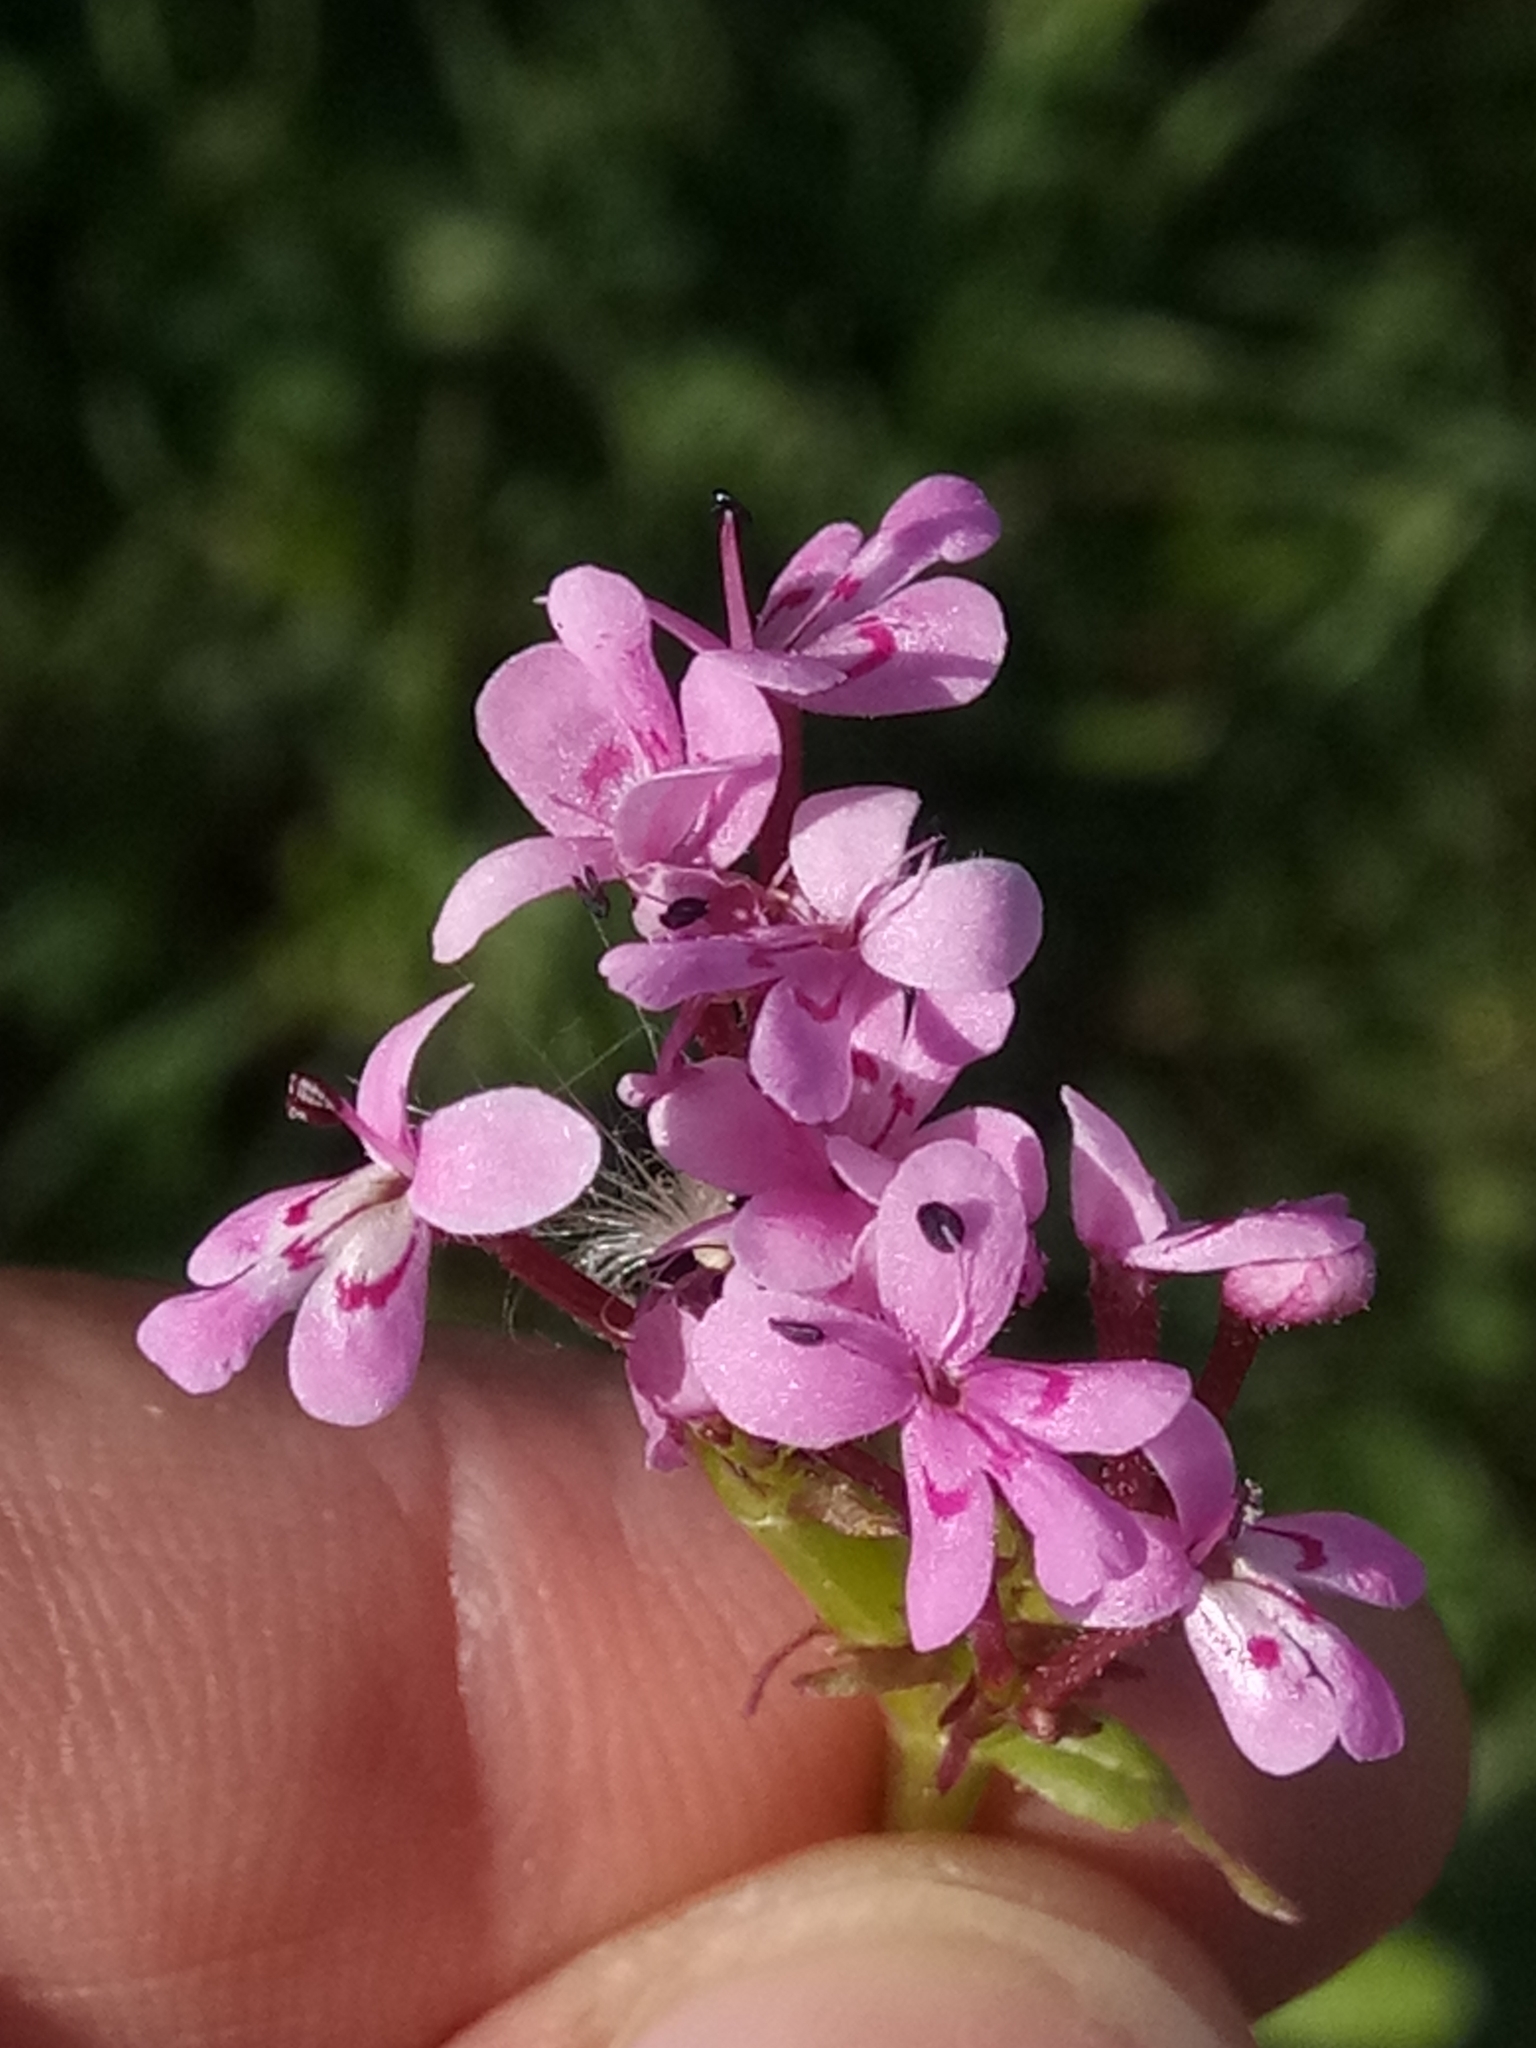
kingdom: Plantae
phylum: Tracheophyta
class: Magnoliopsida
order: Dipsacales
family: Caprifoliaceae
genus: Fedia
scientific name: Fedia graciliflora
